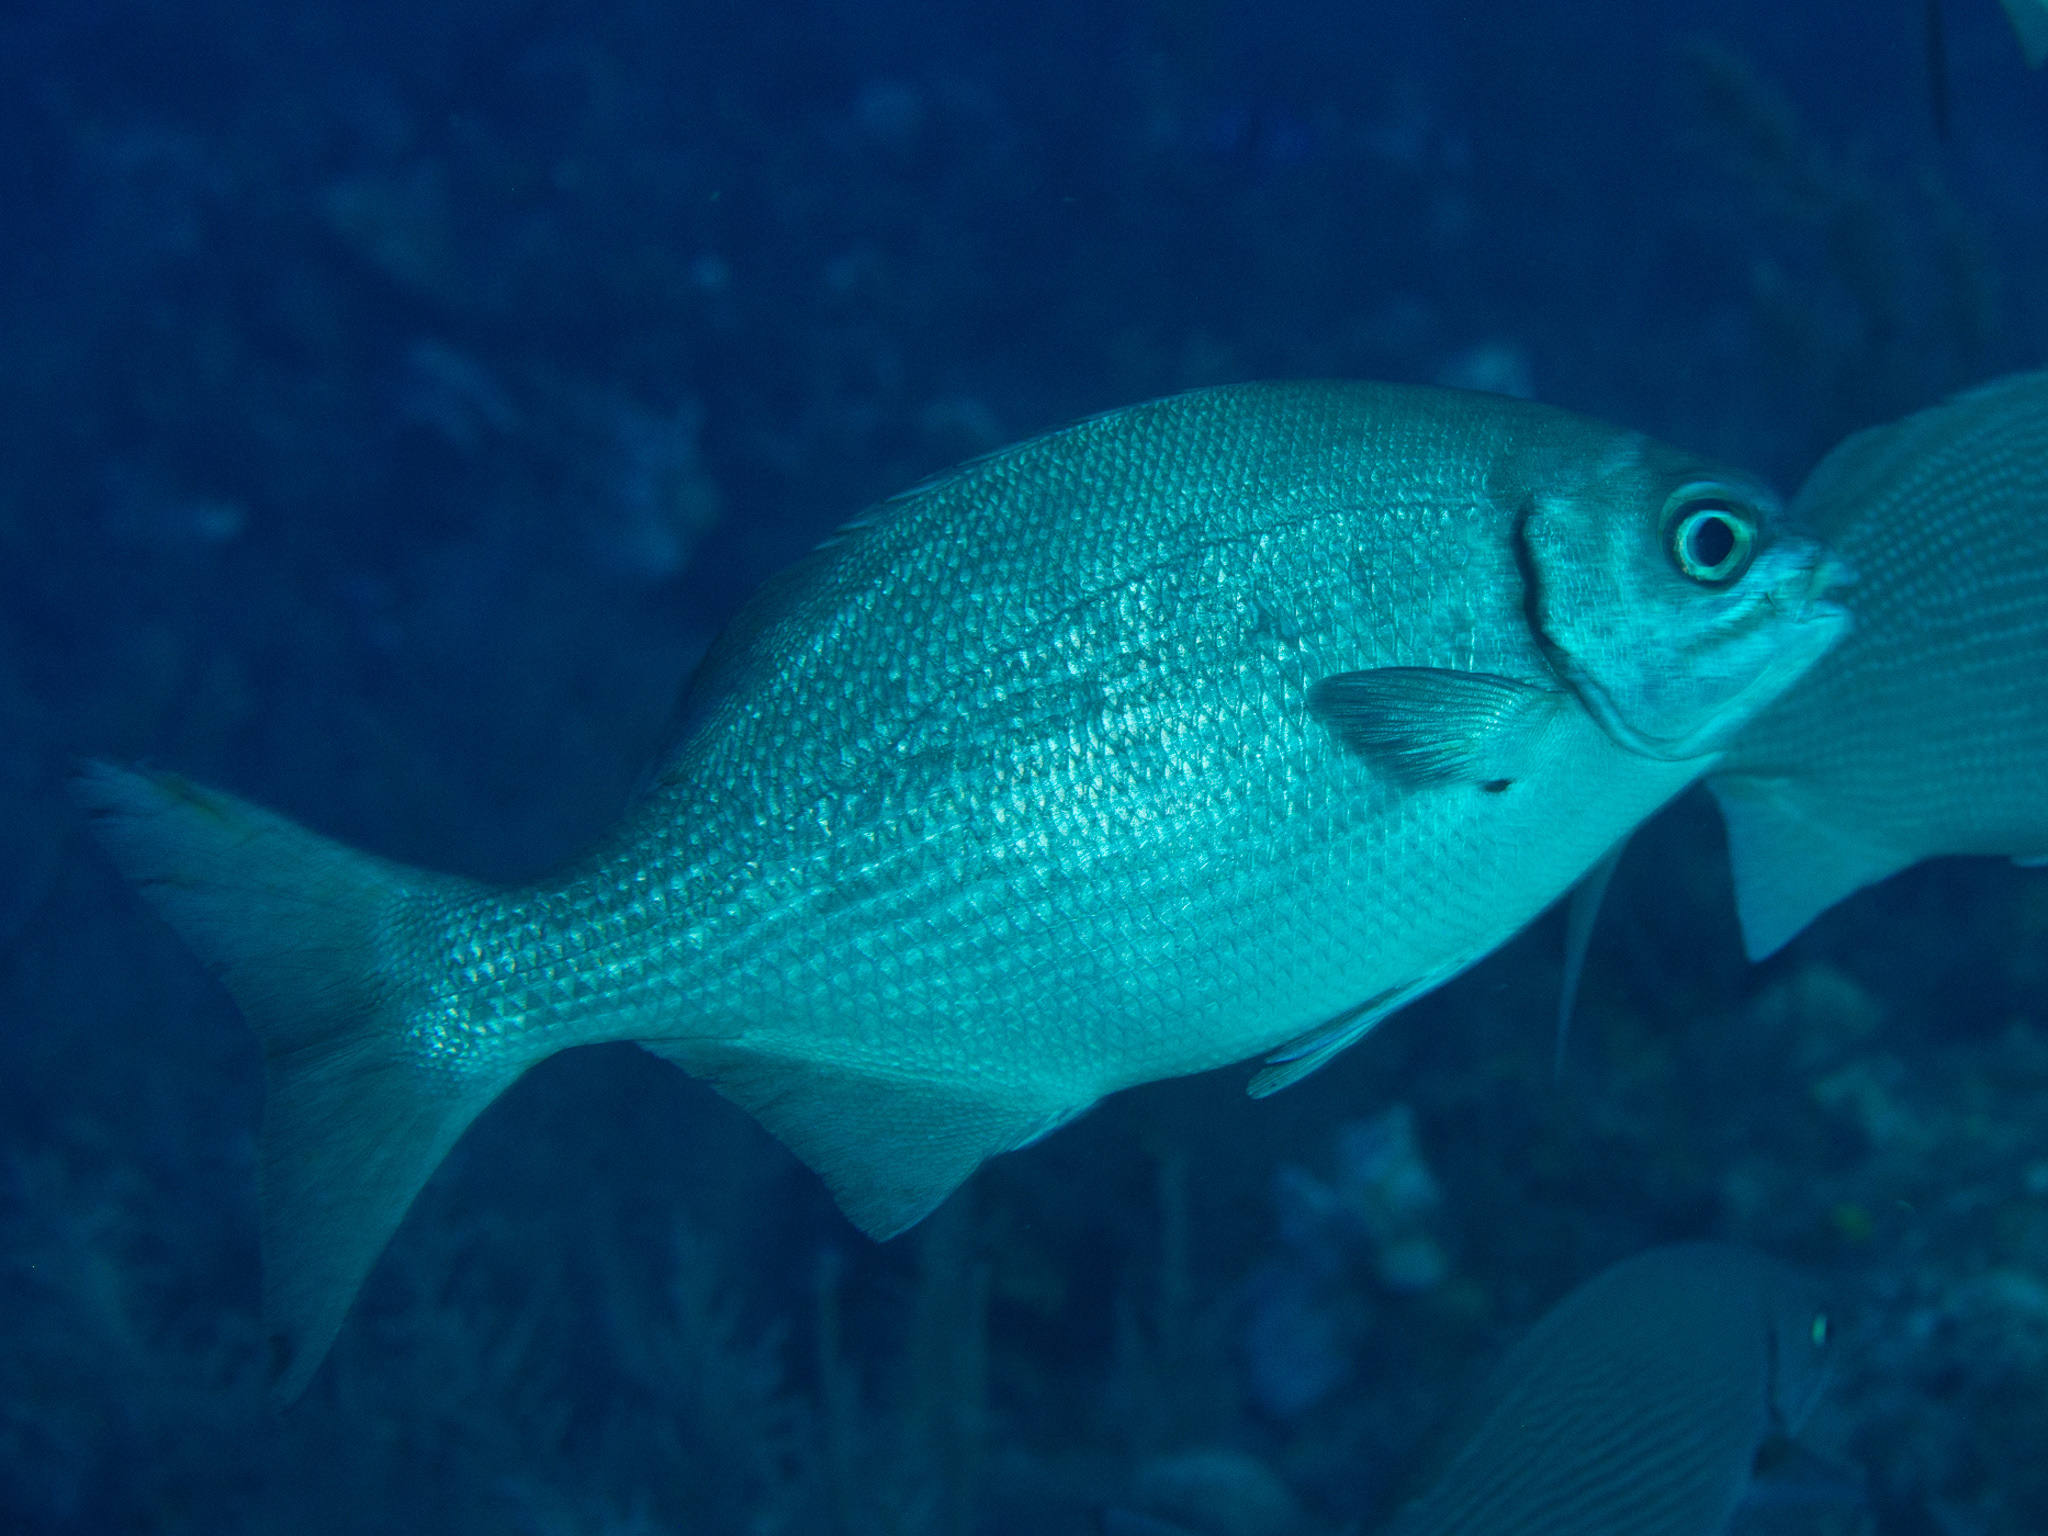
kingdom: Animalia
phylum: Chordata
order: Perciformes
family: Kyphosidae
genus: Kyphosus
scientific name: Kyphosus sectatrix
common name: Bermuda chub
